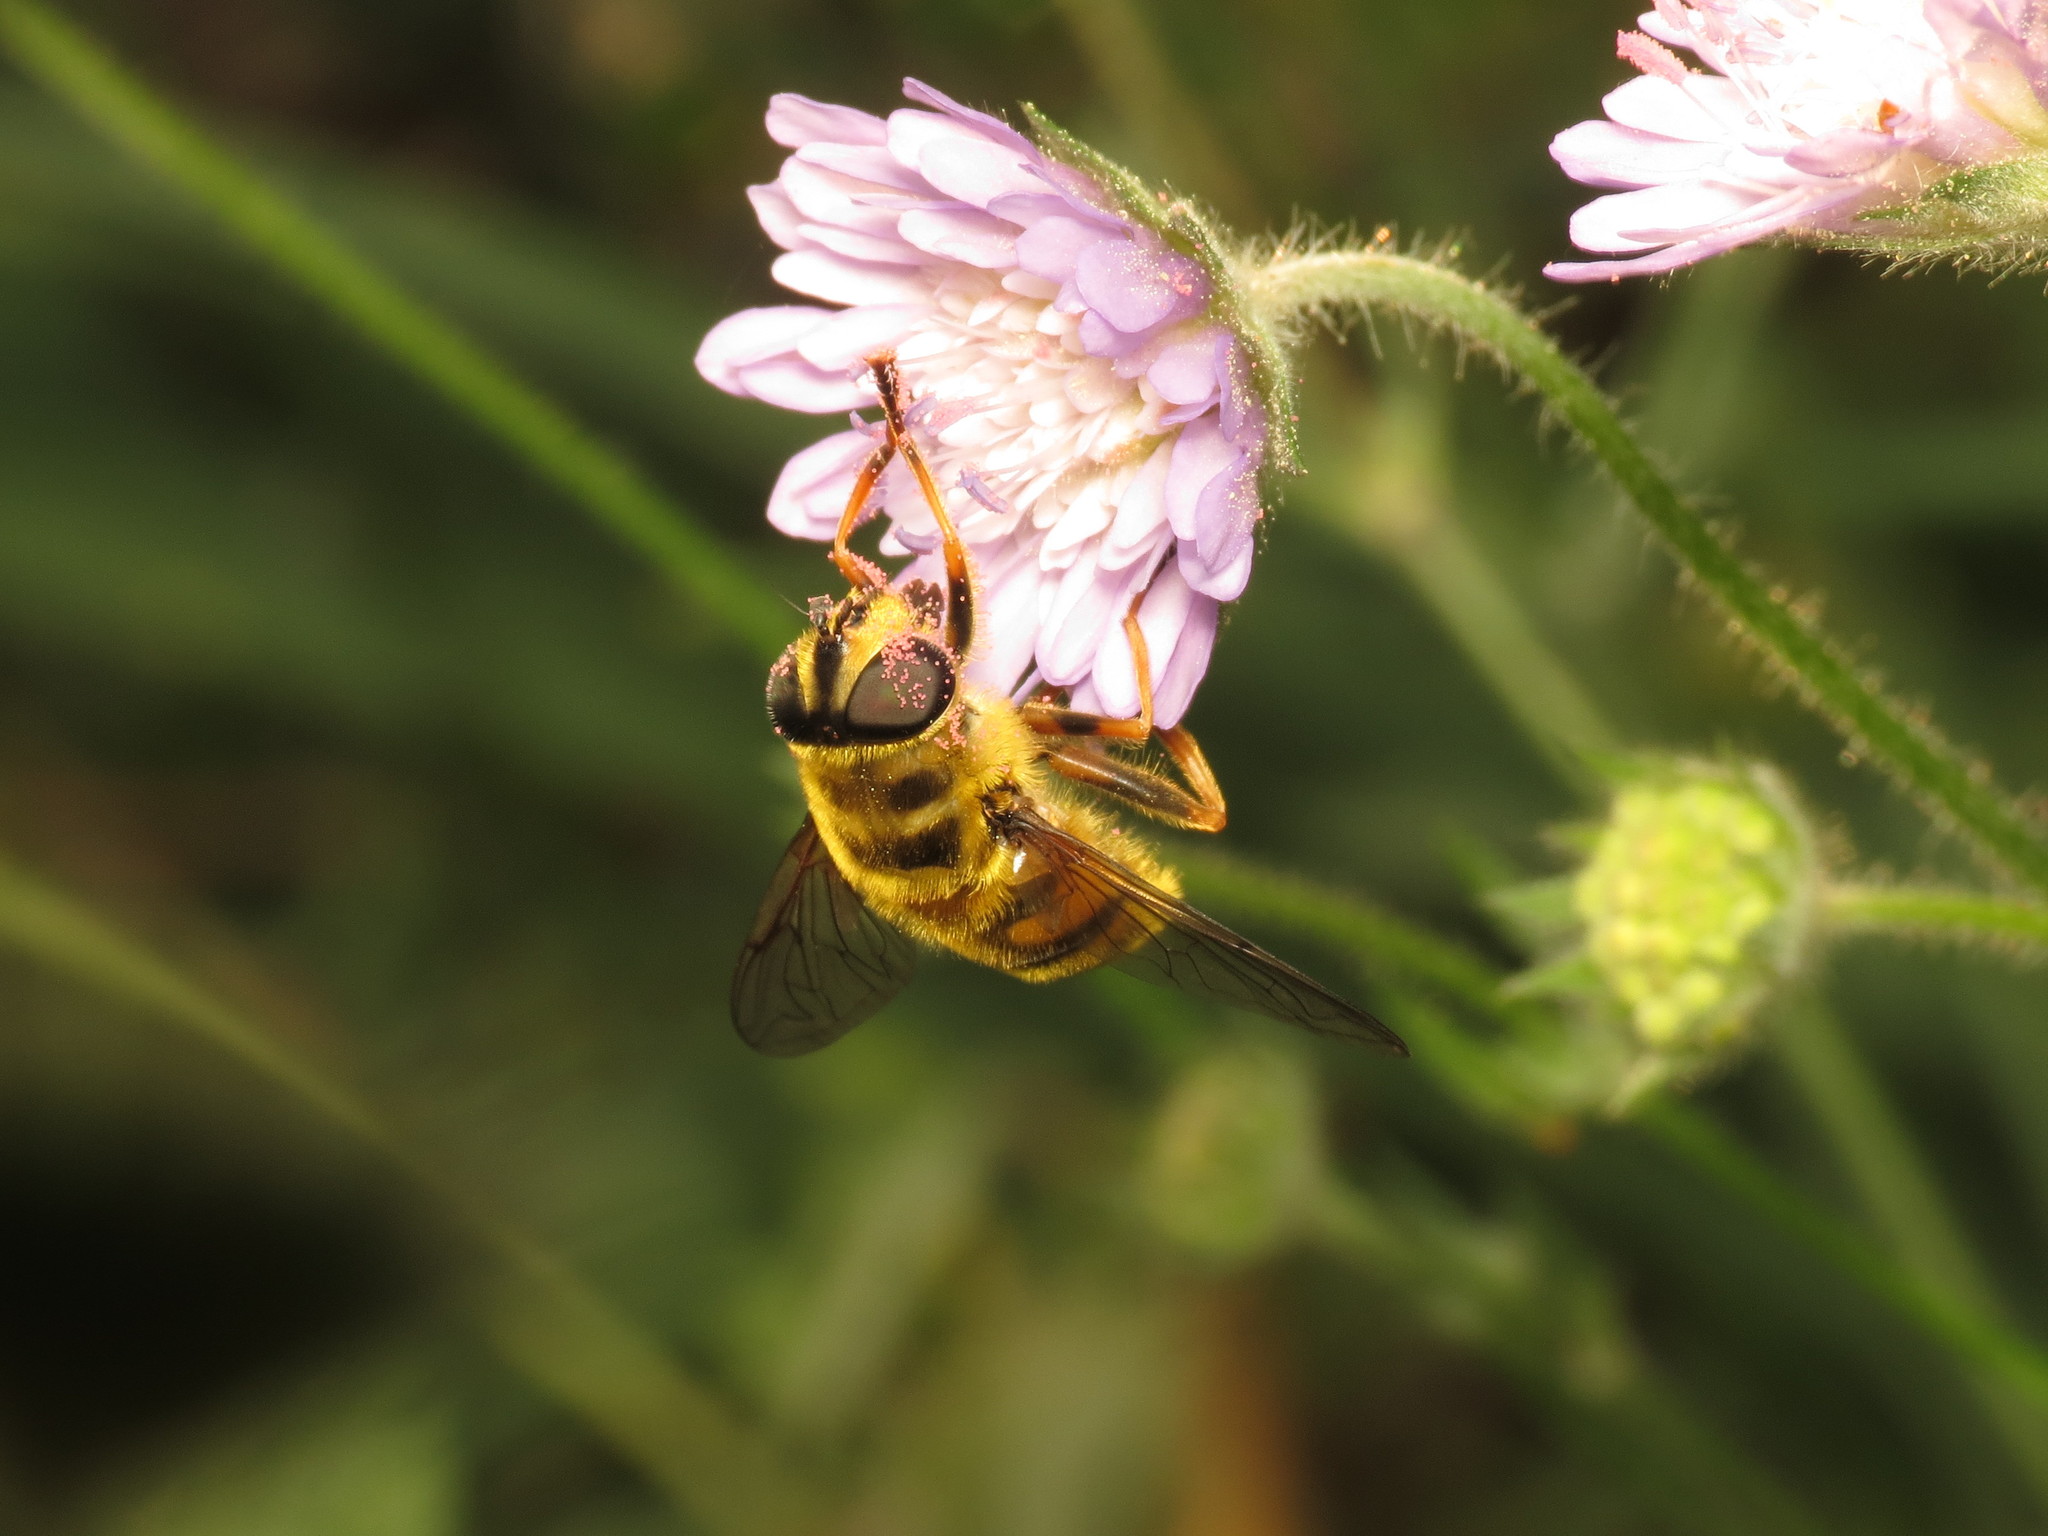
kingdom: Animalia
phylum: Arthropoda
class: Insecta
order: Diptera
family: Syrphidae
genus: Myathropa
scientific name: Myathropa florea
